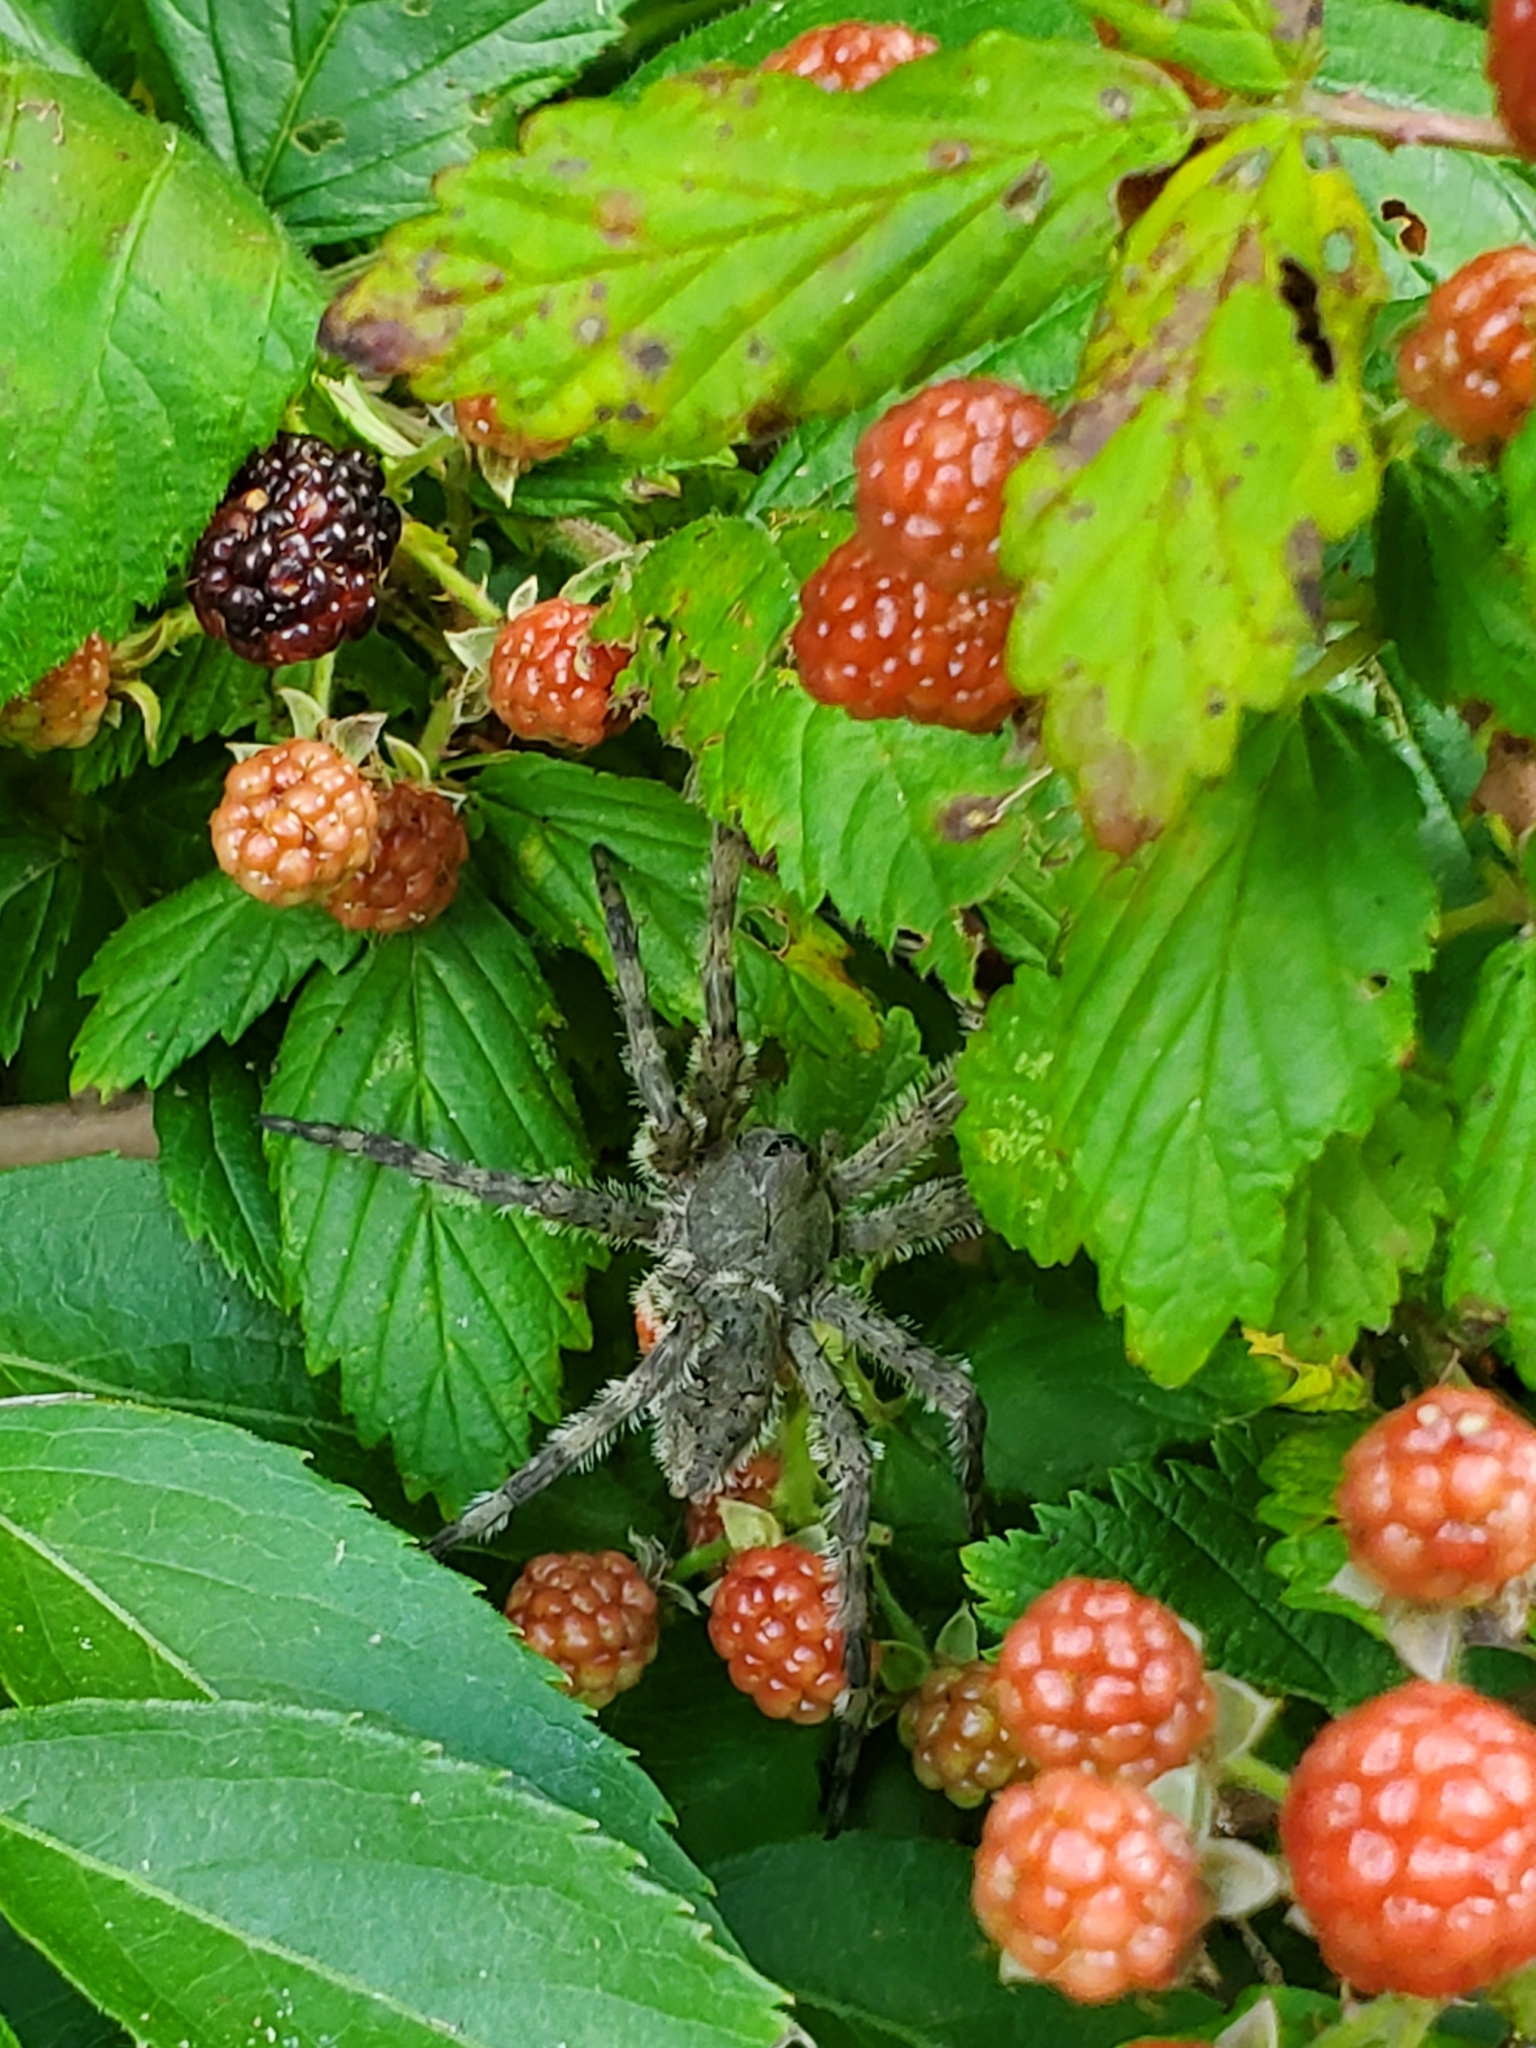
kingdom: Animalia
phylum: Arthropoda
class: Arachnida
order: Araneae
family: Pisauridae
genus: Dolomedes
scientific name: Dolomedes albineus
